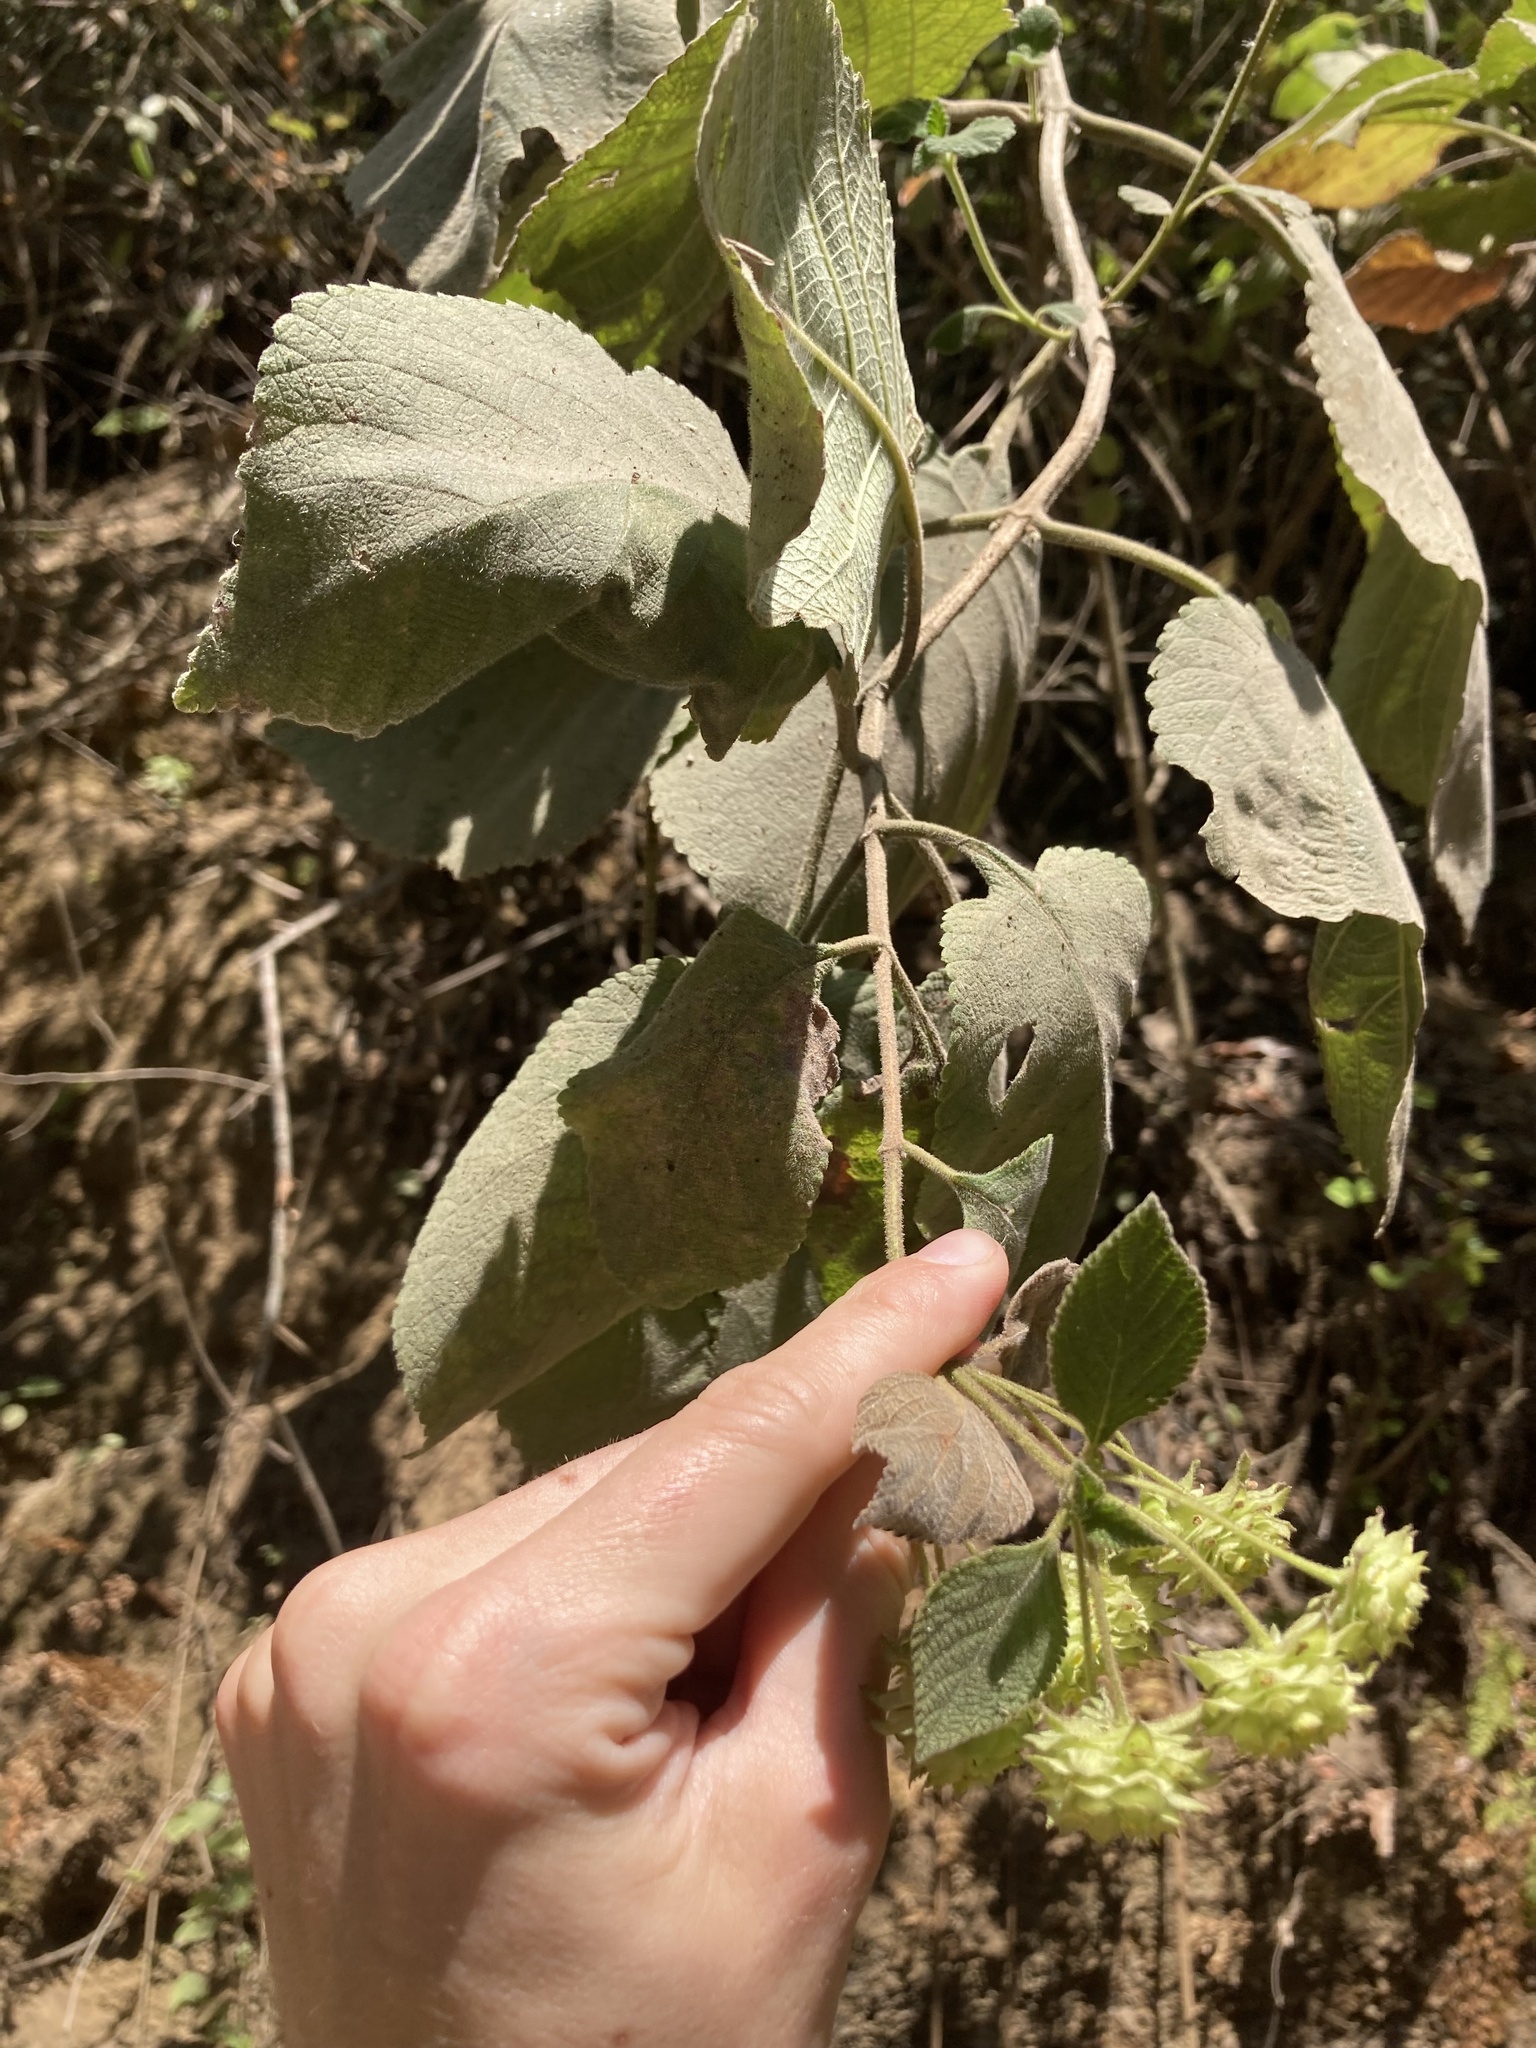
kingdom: Plantae
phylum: Tracheophyta
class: Magnoliopsida
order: Lamiales
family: Verbenaceae
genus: Lippia
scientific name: Lippia umbellata
